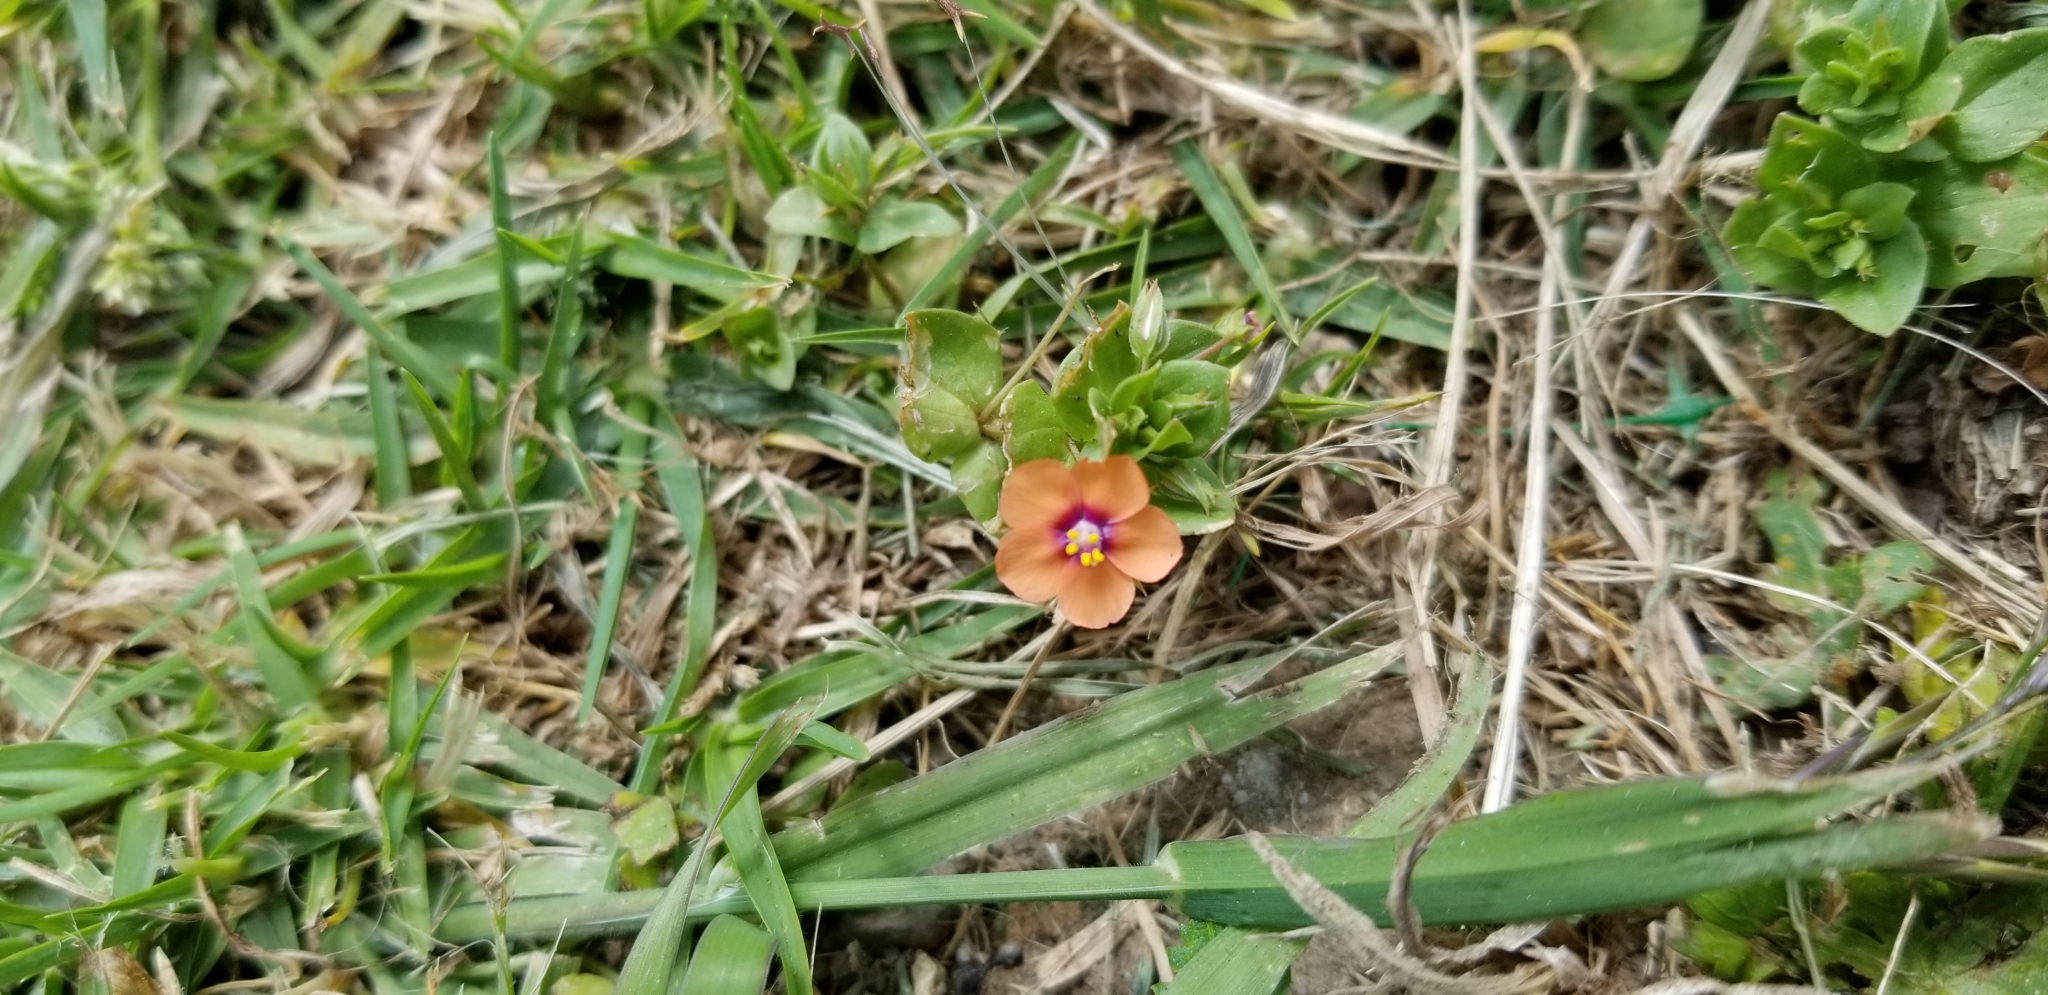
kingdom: Plantae
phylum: Tracheophyta
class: Magnoliopsida
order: Ericales
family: Primulaceae
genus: Lysimachia
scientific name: Lysimachia arvensis
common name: Scarlet pimpernel
